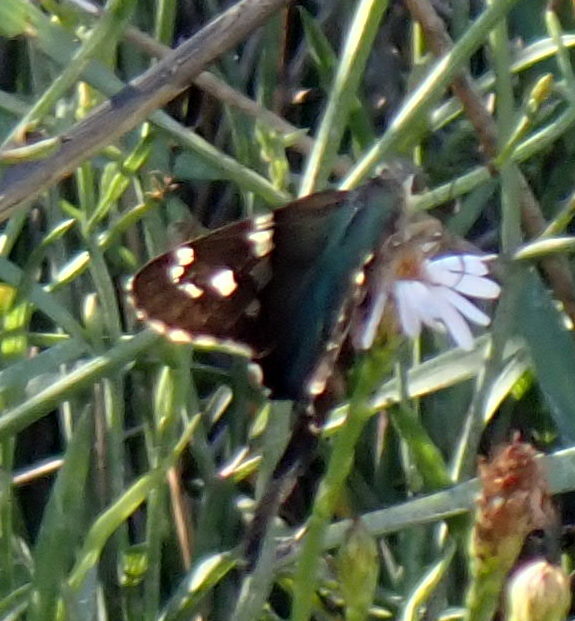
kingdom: Animalia
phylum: Arthropoda
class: Insecta
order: Lepidoptera
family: Hesperiidae
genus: Urbanus
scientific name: Urbanus proteus
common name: Long-tailed skipper
